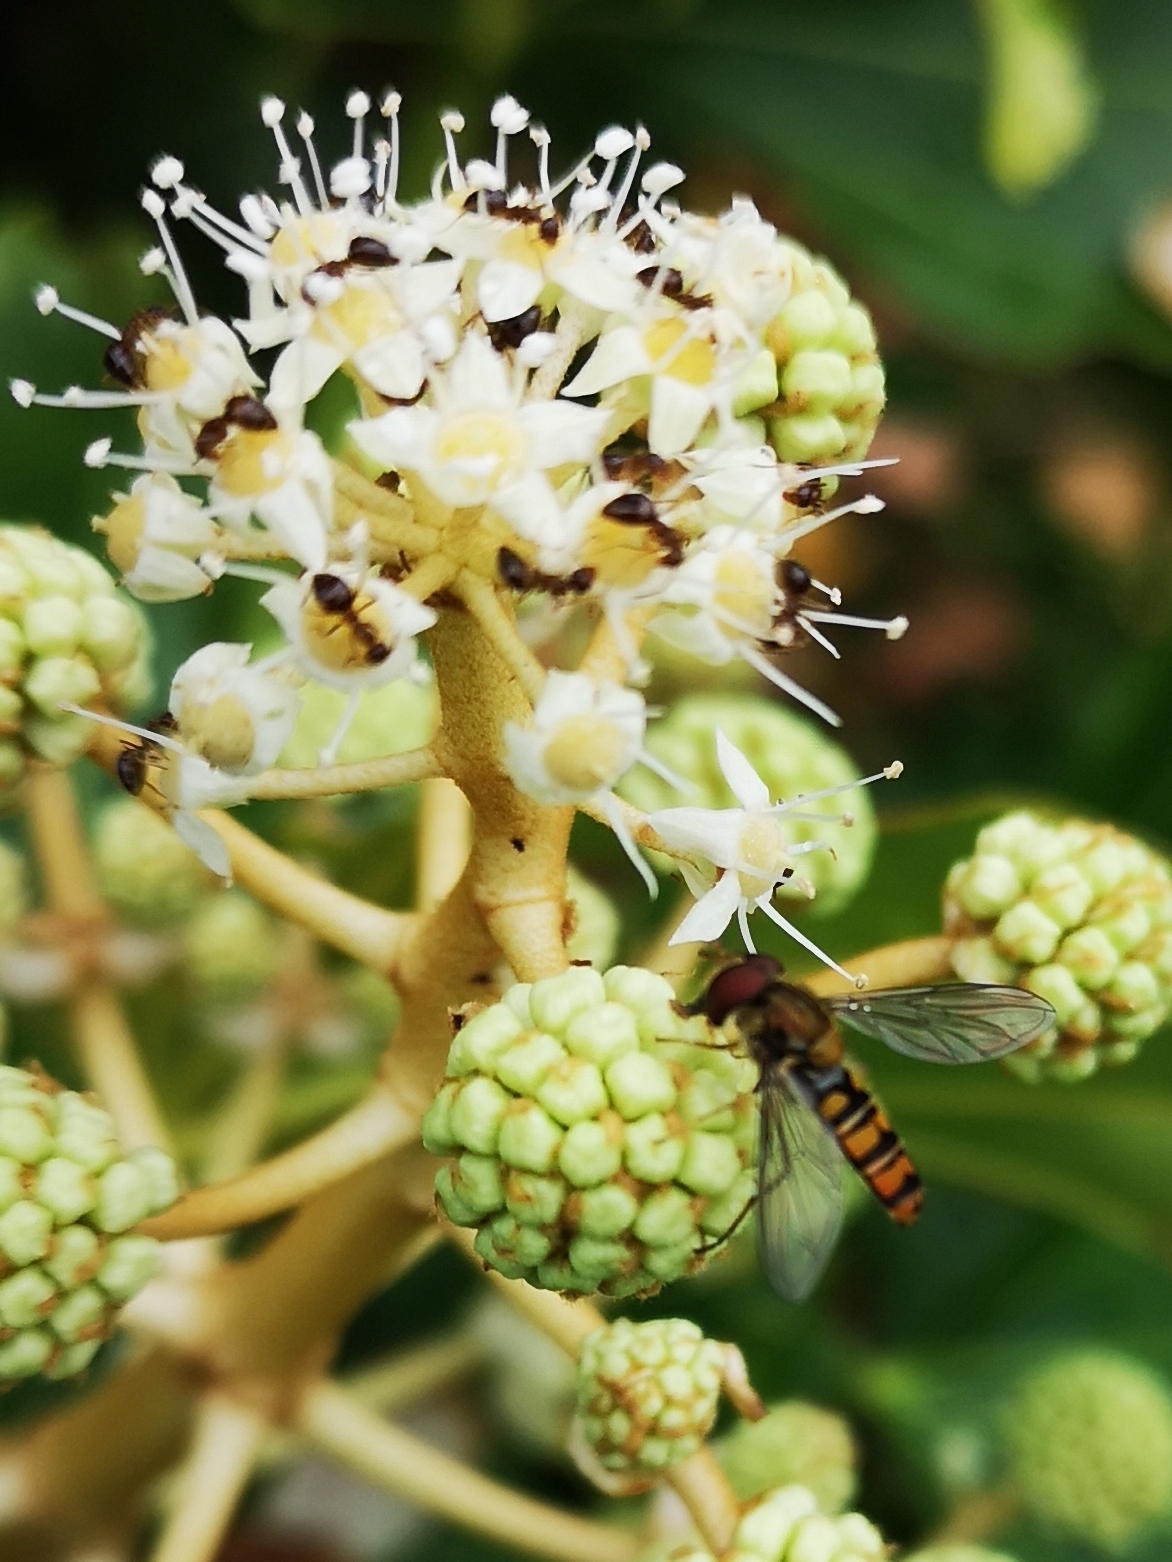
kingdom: Animalia
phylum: Arthropoda
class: Insecta
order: Diptera
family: Syrphidae
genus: Episyrphus
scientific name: Episyrphus balteatus
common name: Marmalade hoverfly
